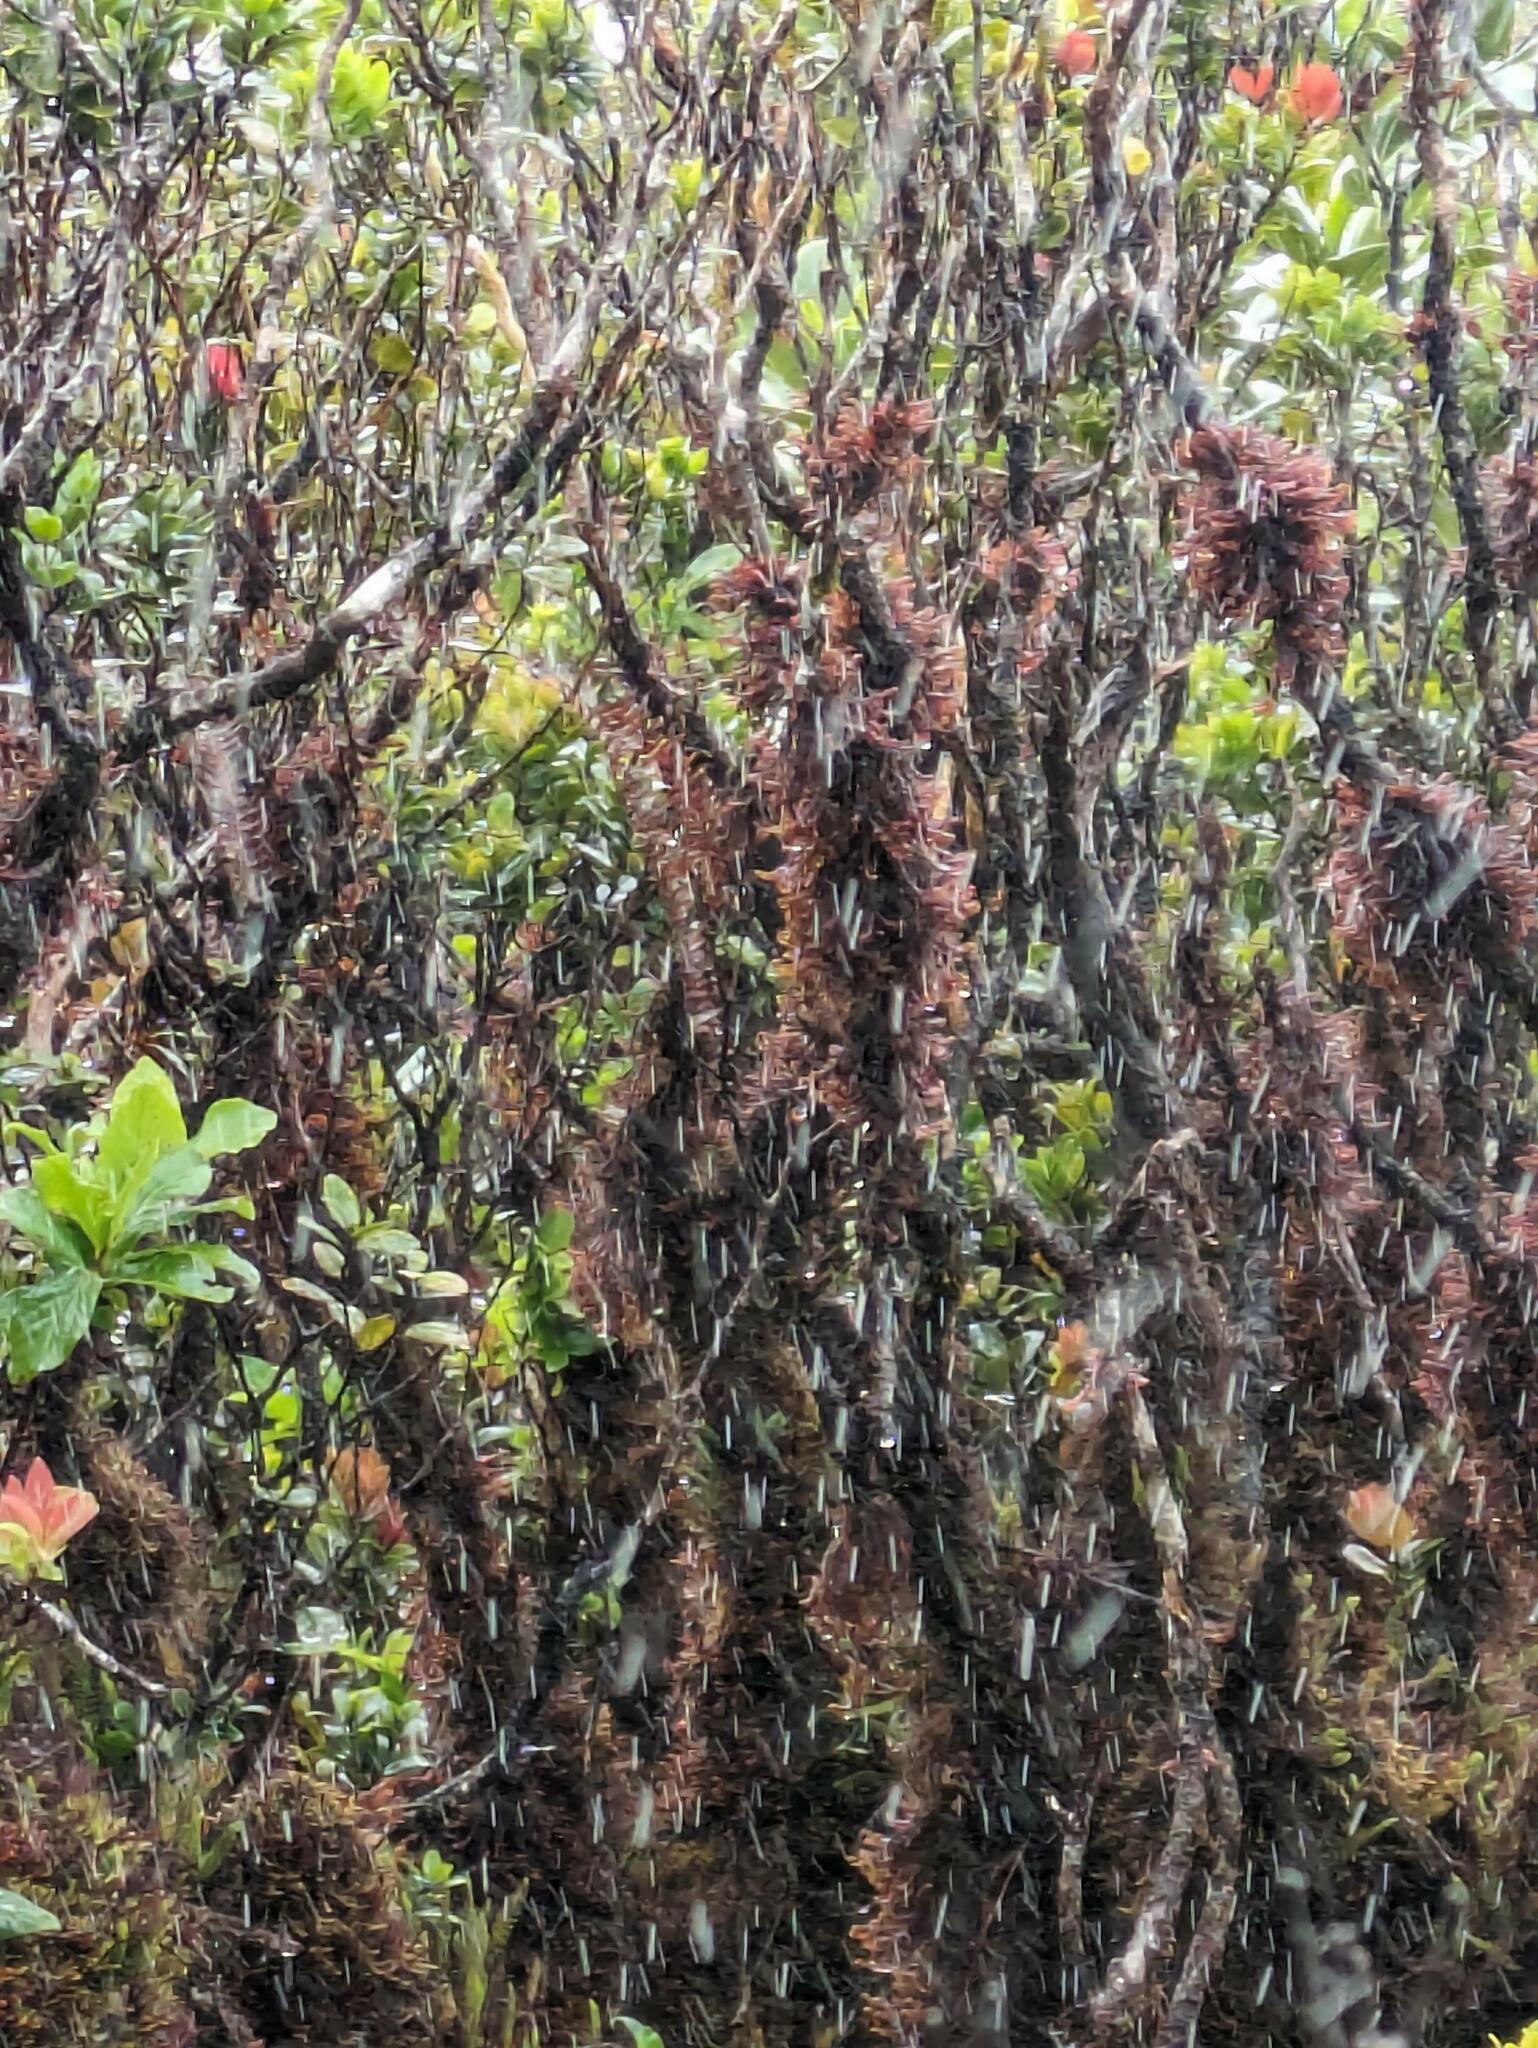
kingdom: Plantae
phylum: Marchantiophyta
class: Jungermanniopsida
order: Pleuroziales
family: Pleuroziaceae
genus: Pleurozia
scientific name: Pleurozia subinflata
